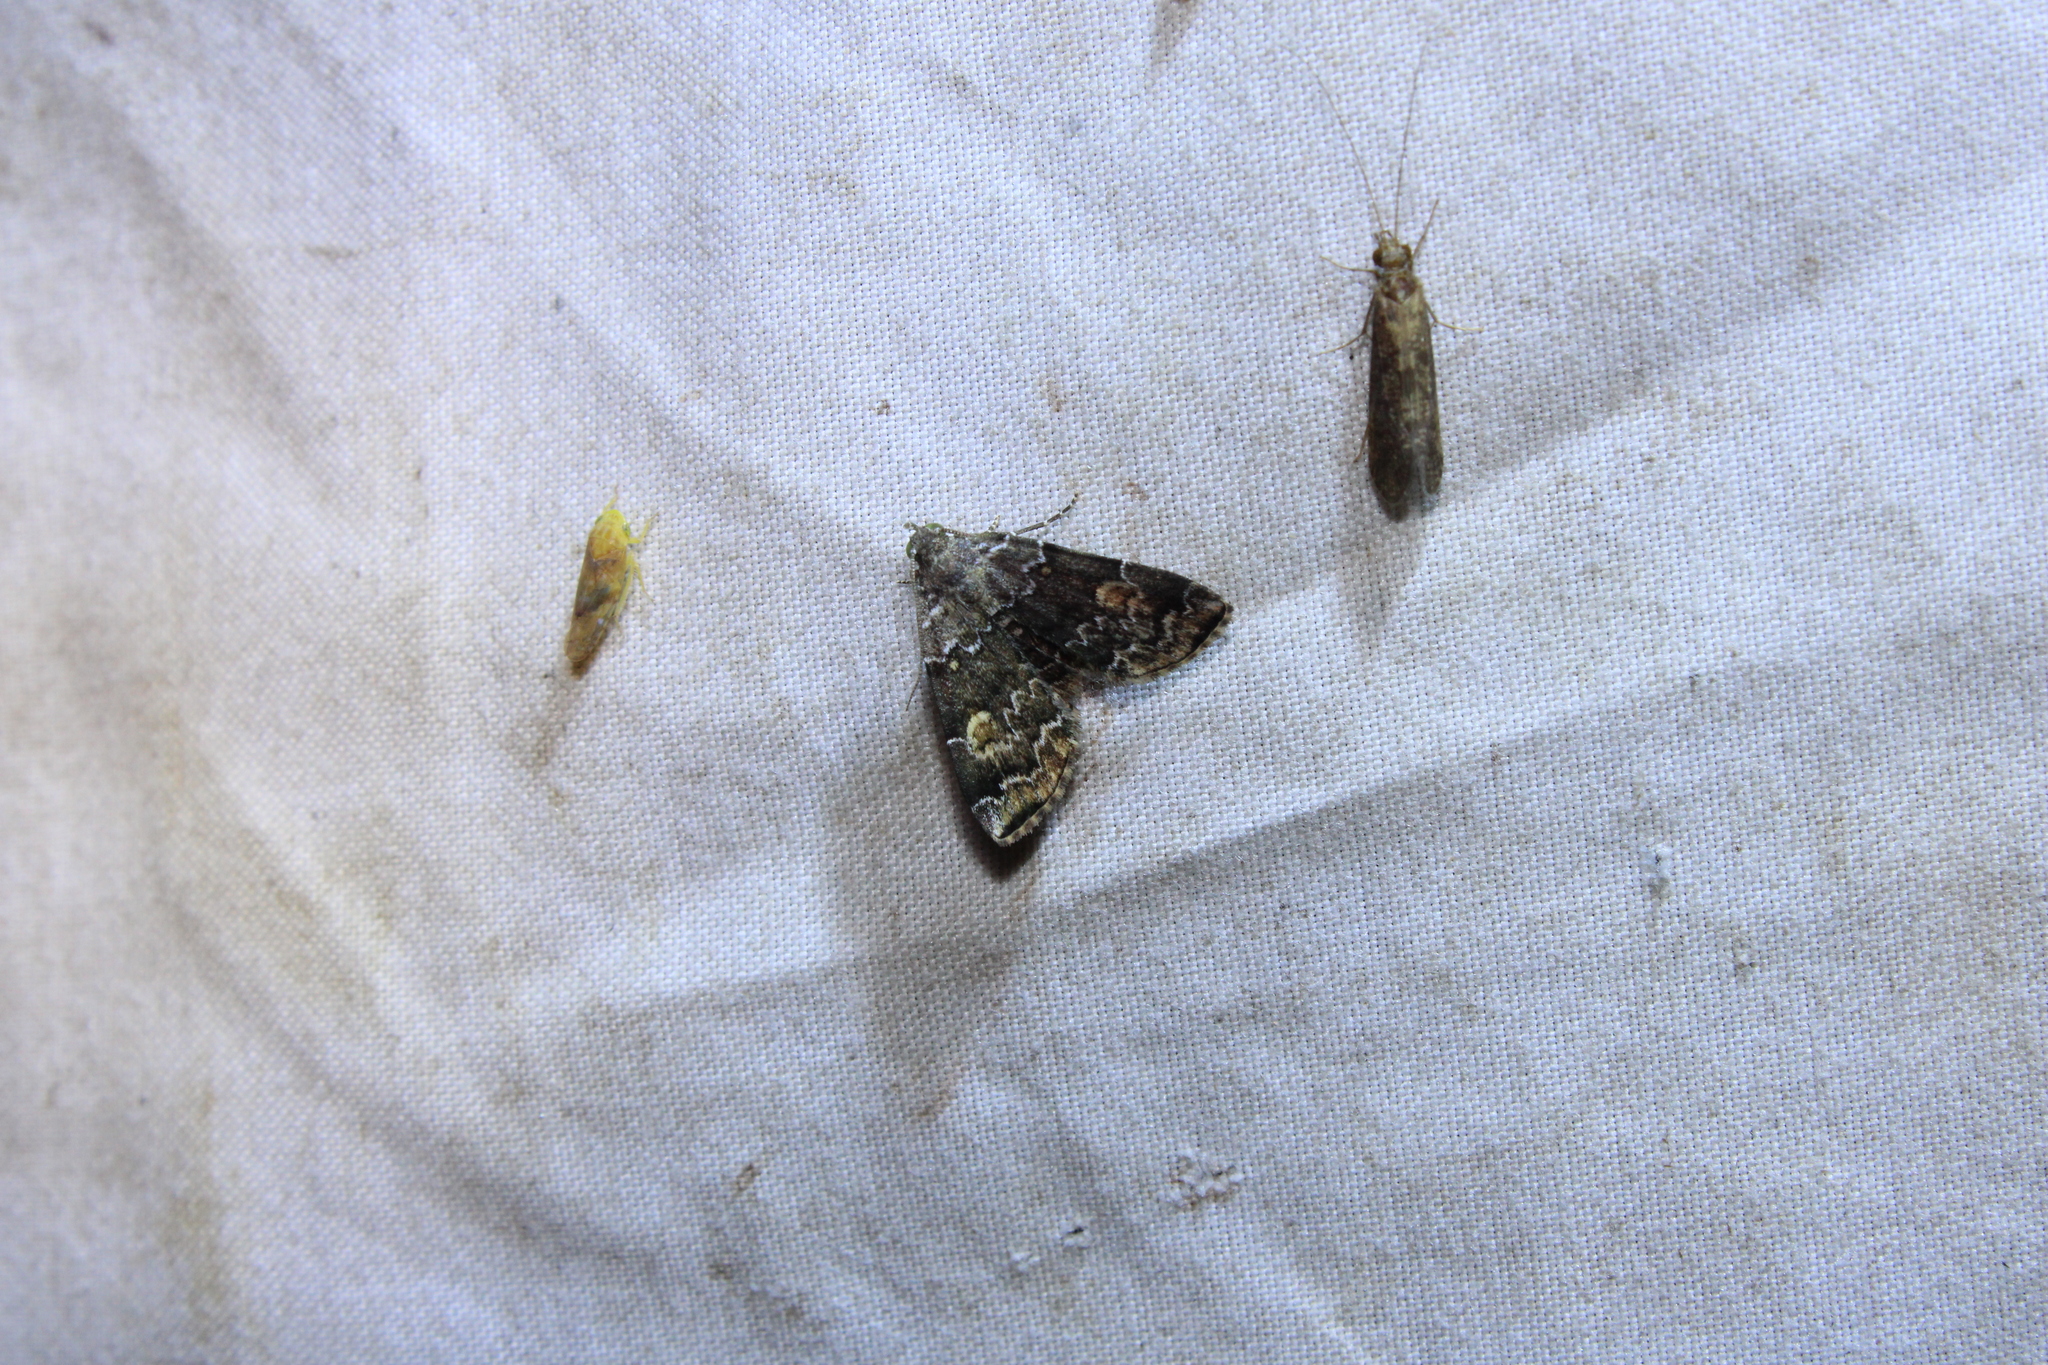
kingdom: Animalia
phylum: Arthropoda
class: Insecta
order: Lepidoptera
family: Erebidae
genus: Idia
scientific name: Idia americalis
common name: American idia moth
